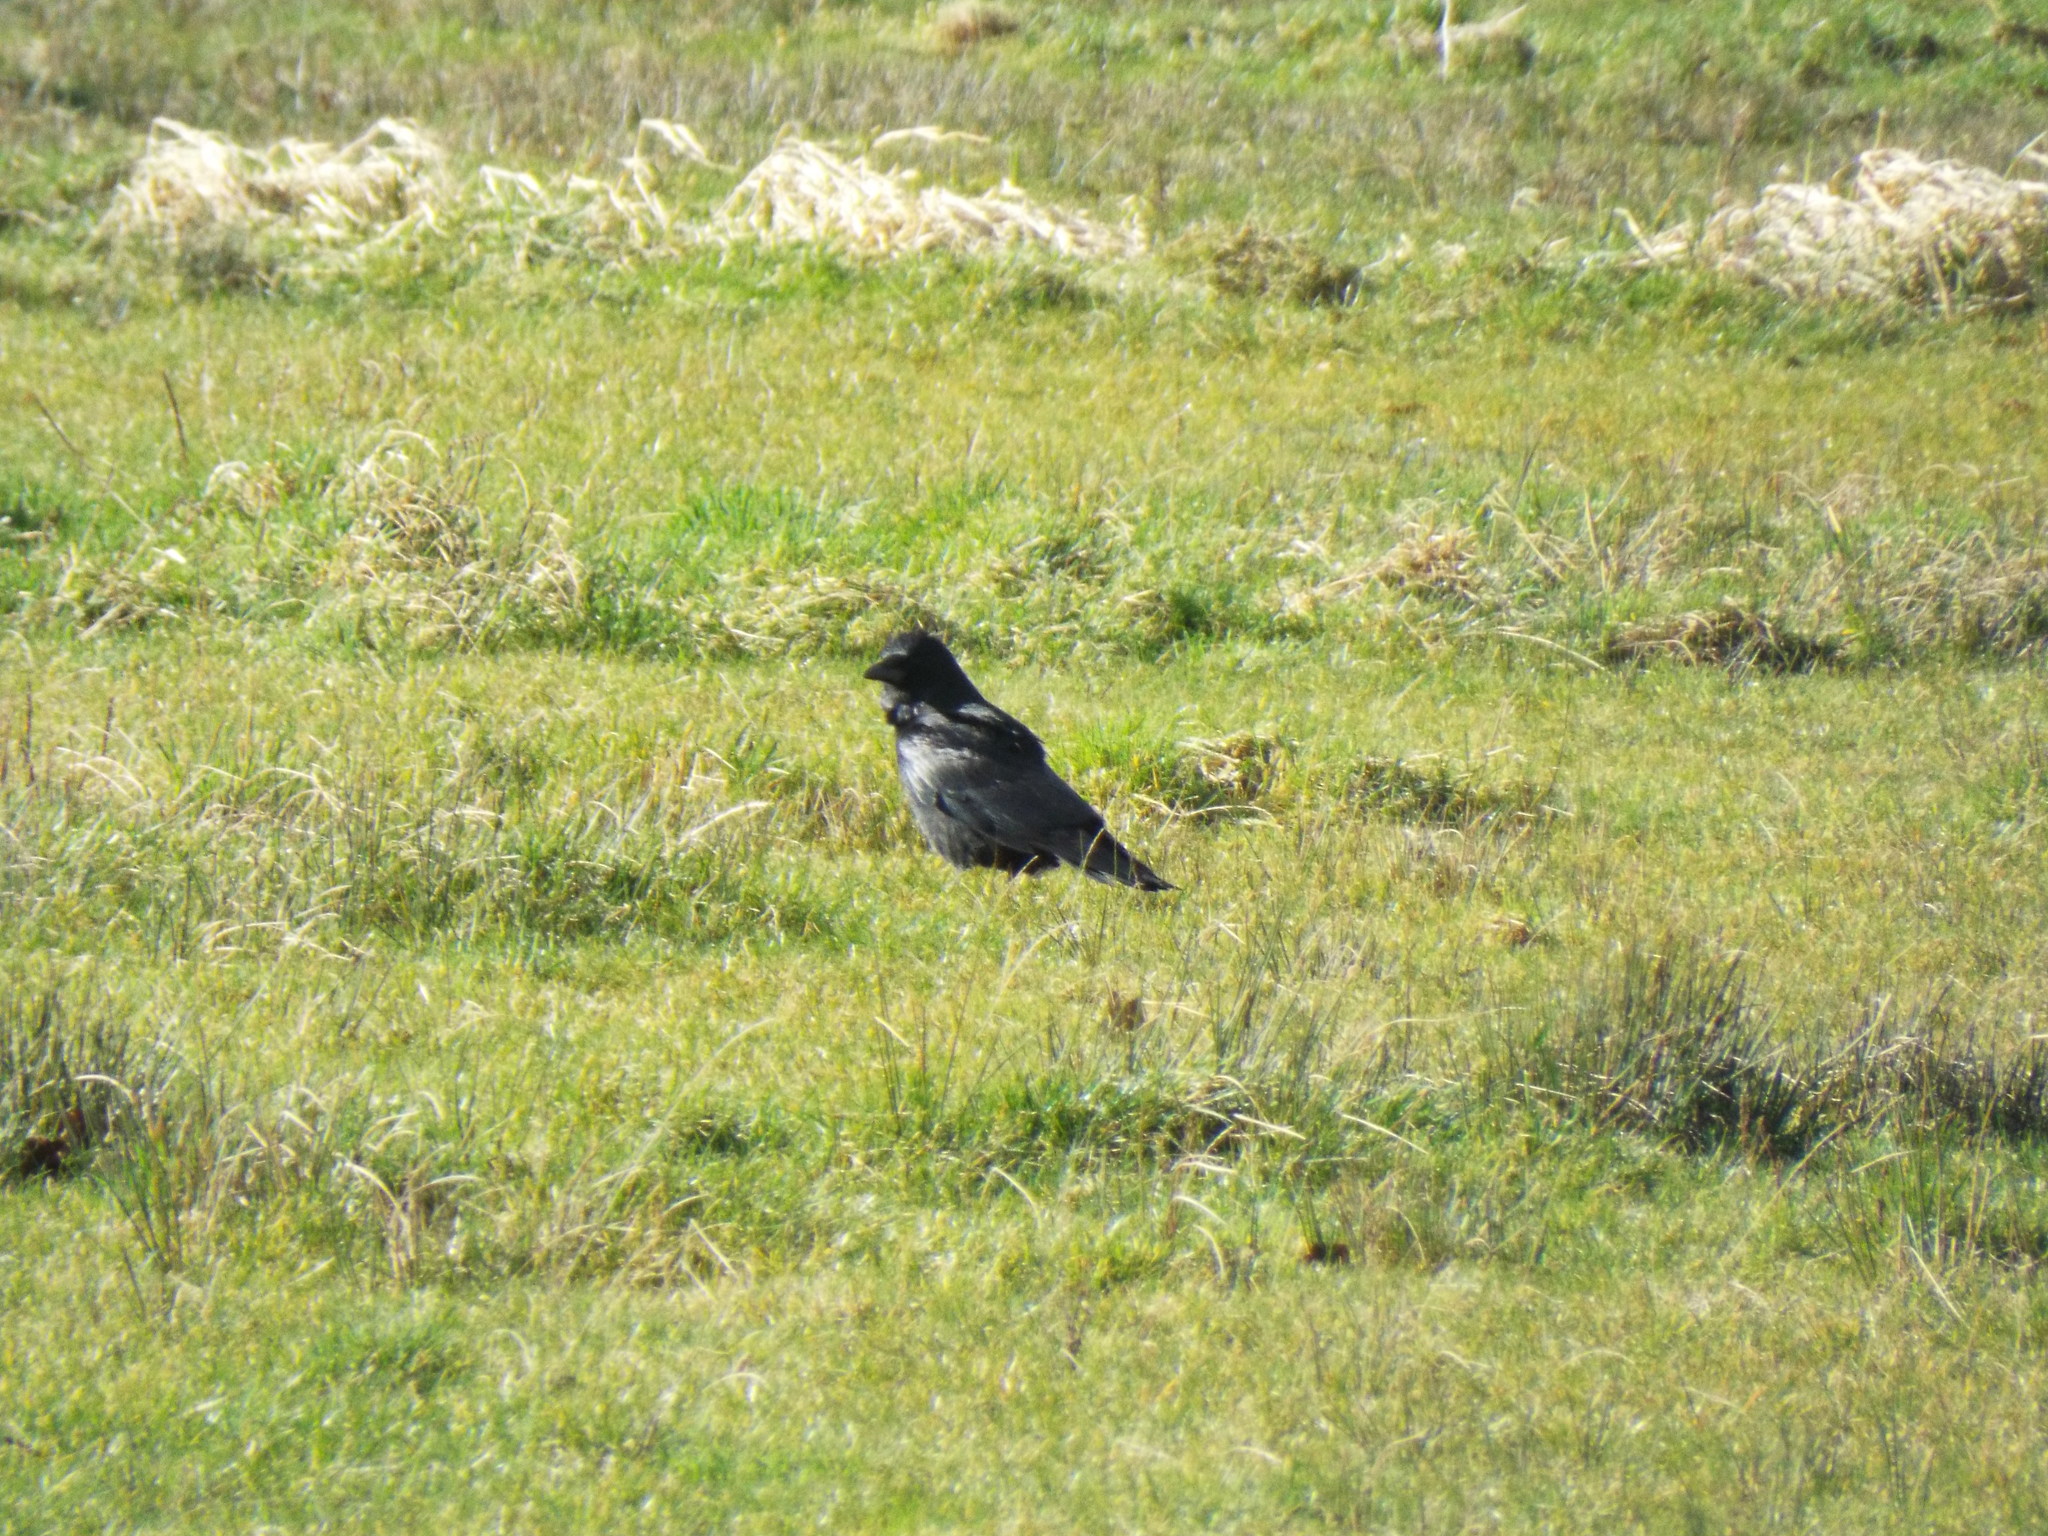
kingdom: Animalia
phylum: Chordata
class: Aves
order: Passeriformes
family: Corvidae
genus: Corvus
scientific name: Corvus corone
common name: Carrion crow
